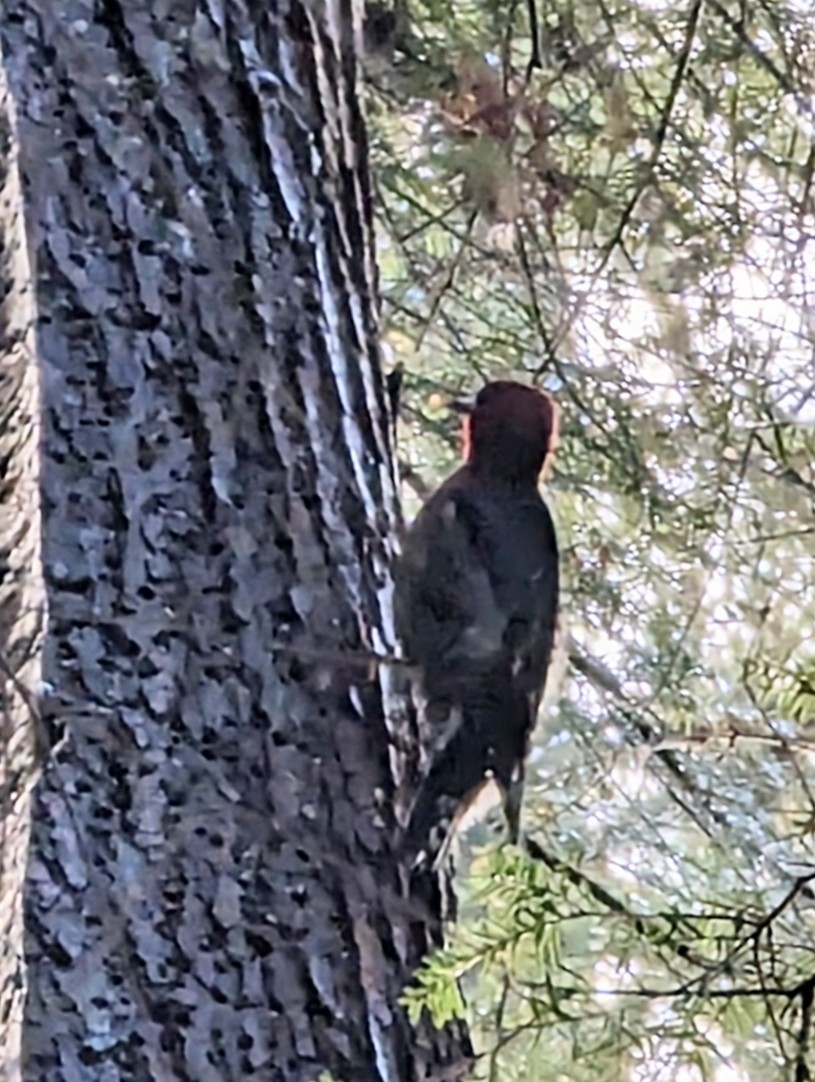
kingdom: Animalia
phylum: Chordata
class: Aves
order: Piciformes
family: Picidae
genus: Sphyrapicus
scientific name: Sphyrapicus ruber
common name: Red-breasted sapsucker
